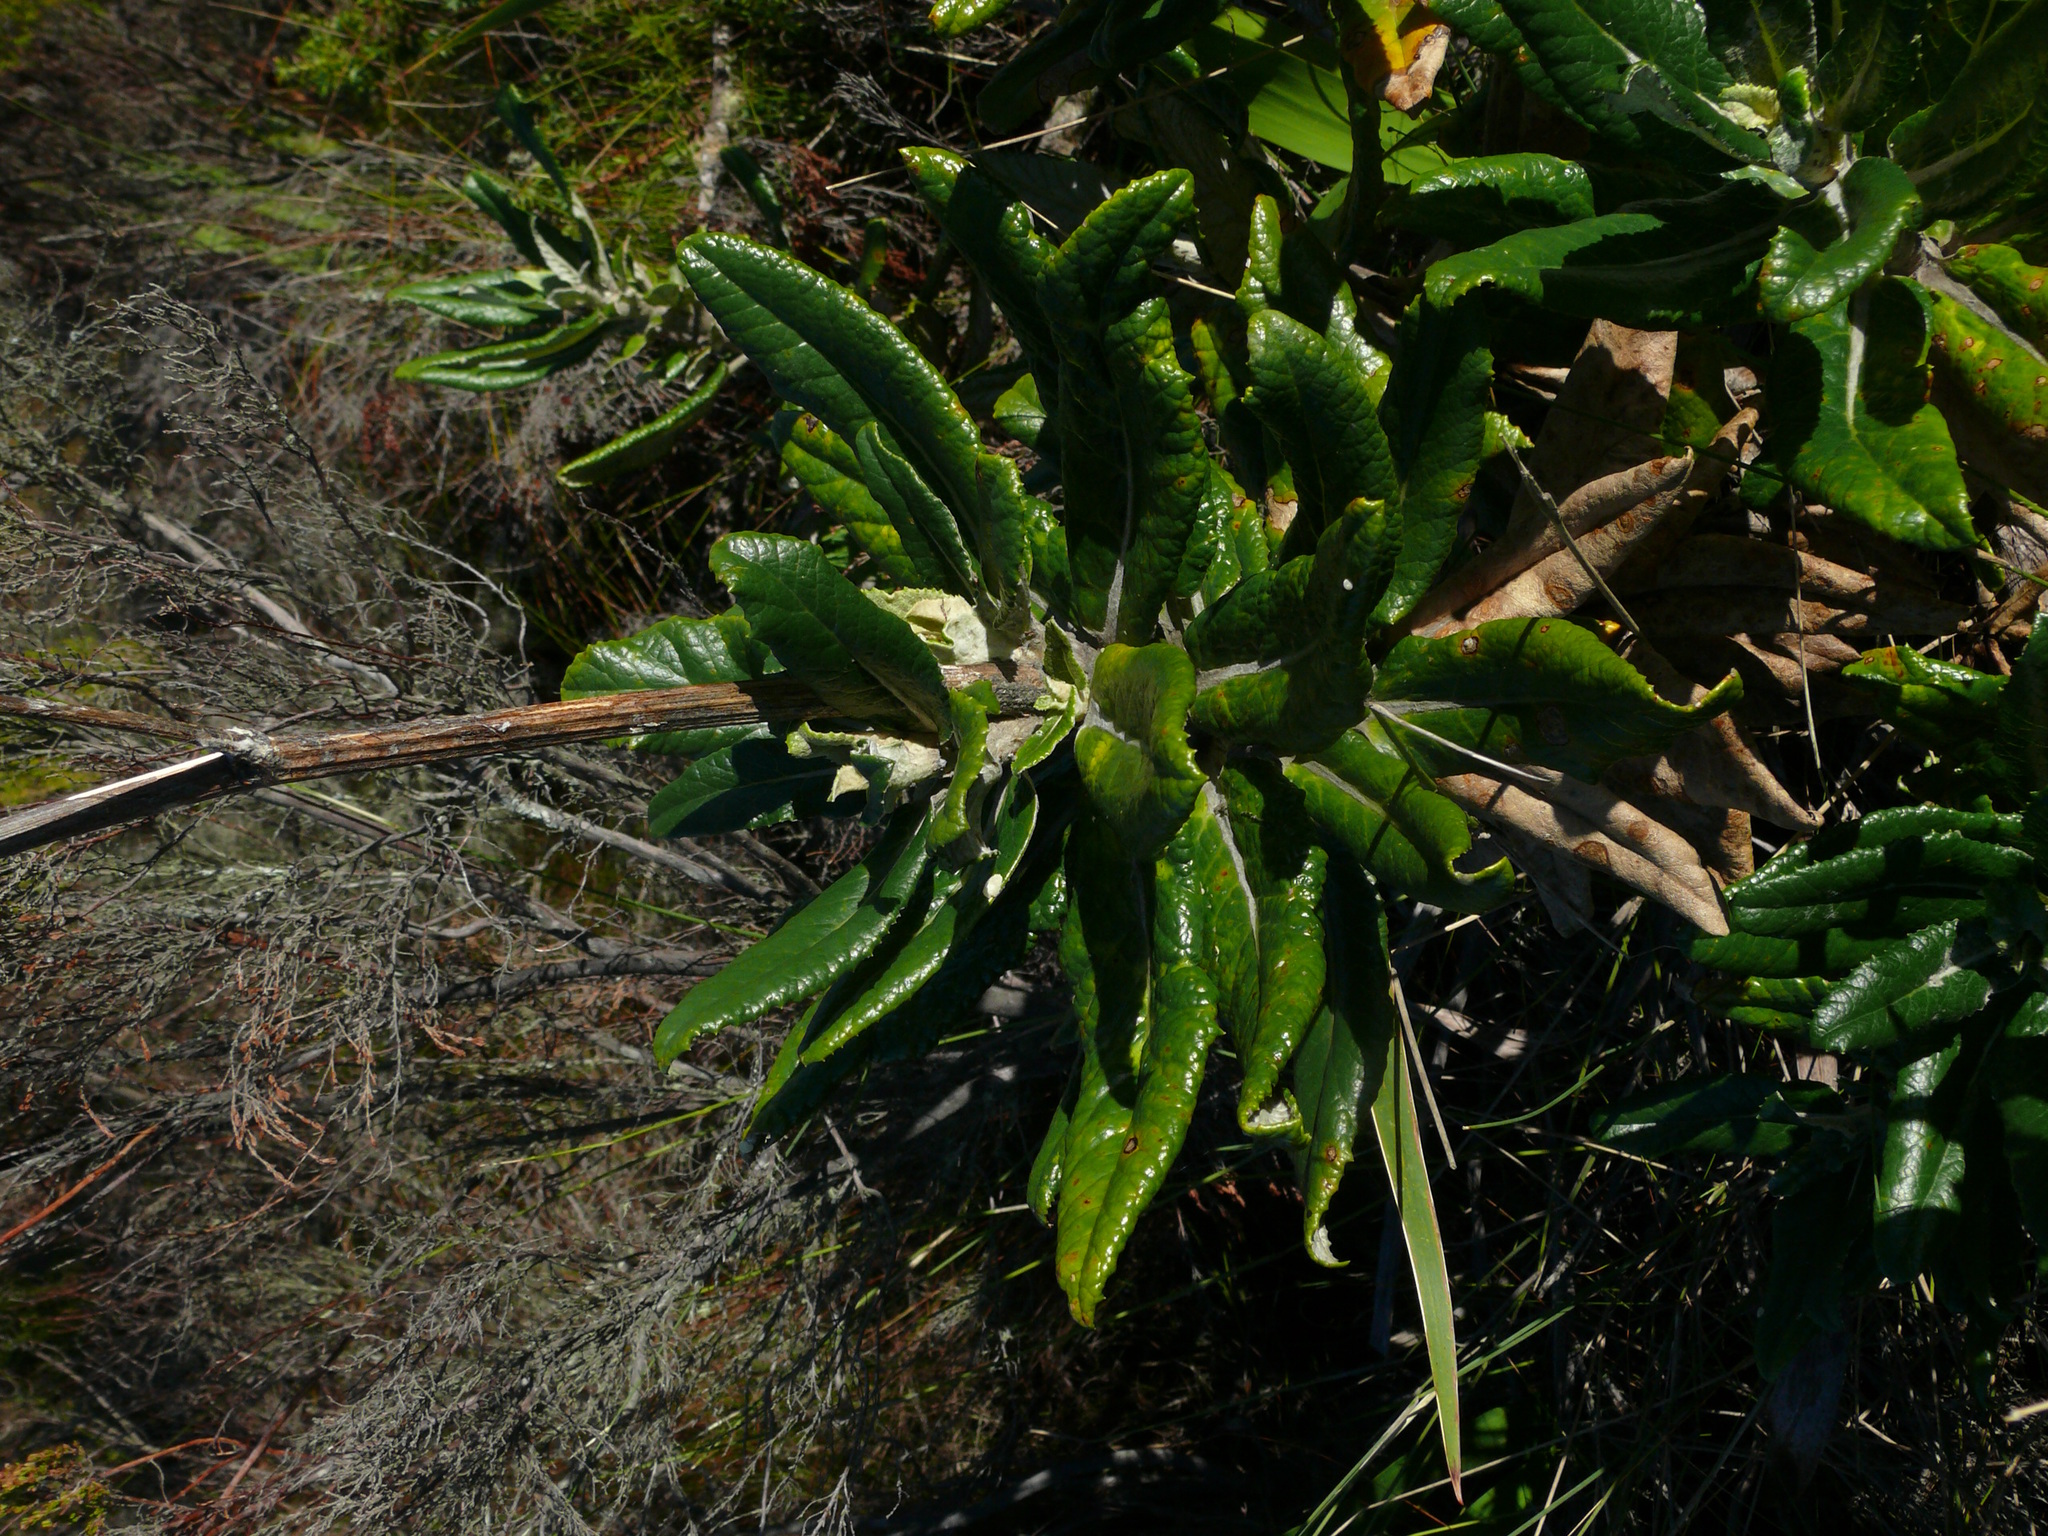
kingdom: Plantae
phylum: Tracheophyta
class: Magnoliopsida
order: Apiales
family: Apiaceae
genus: Hermas
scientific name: Hermas villosa
